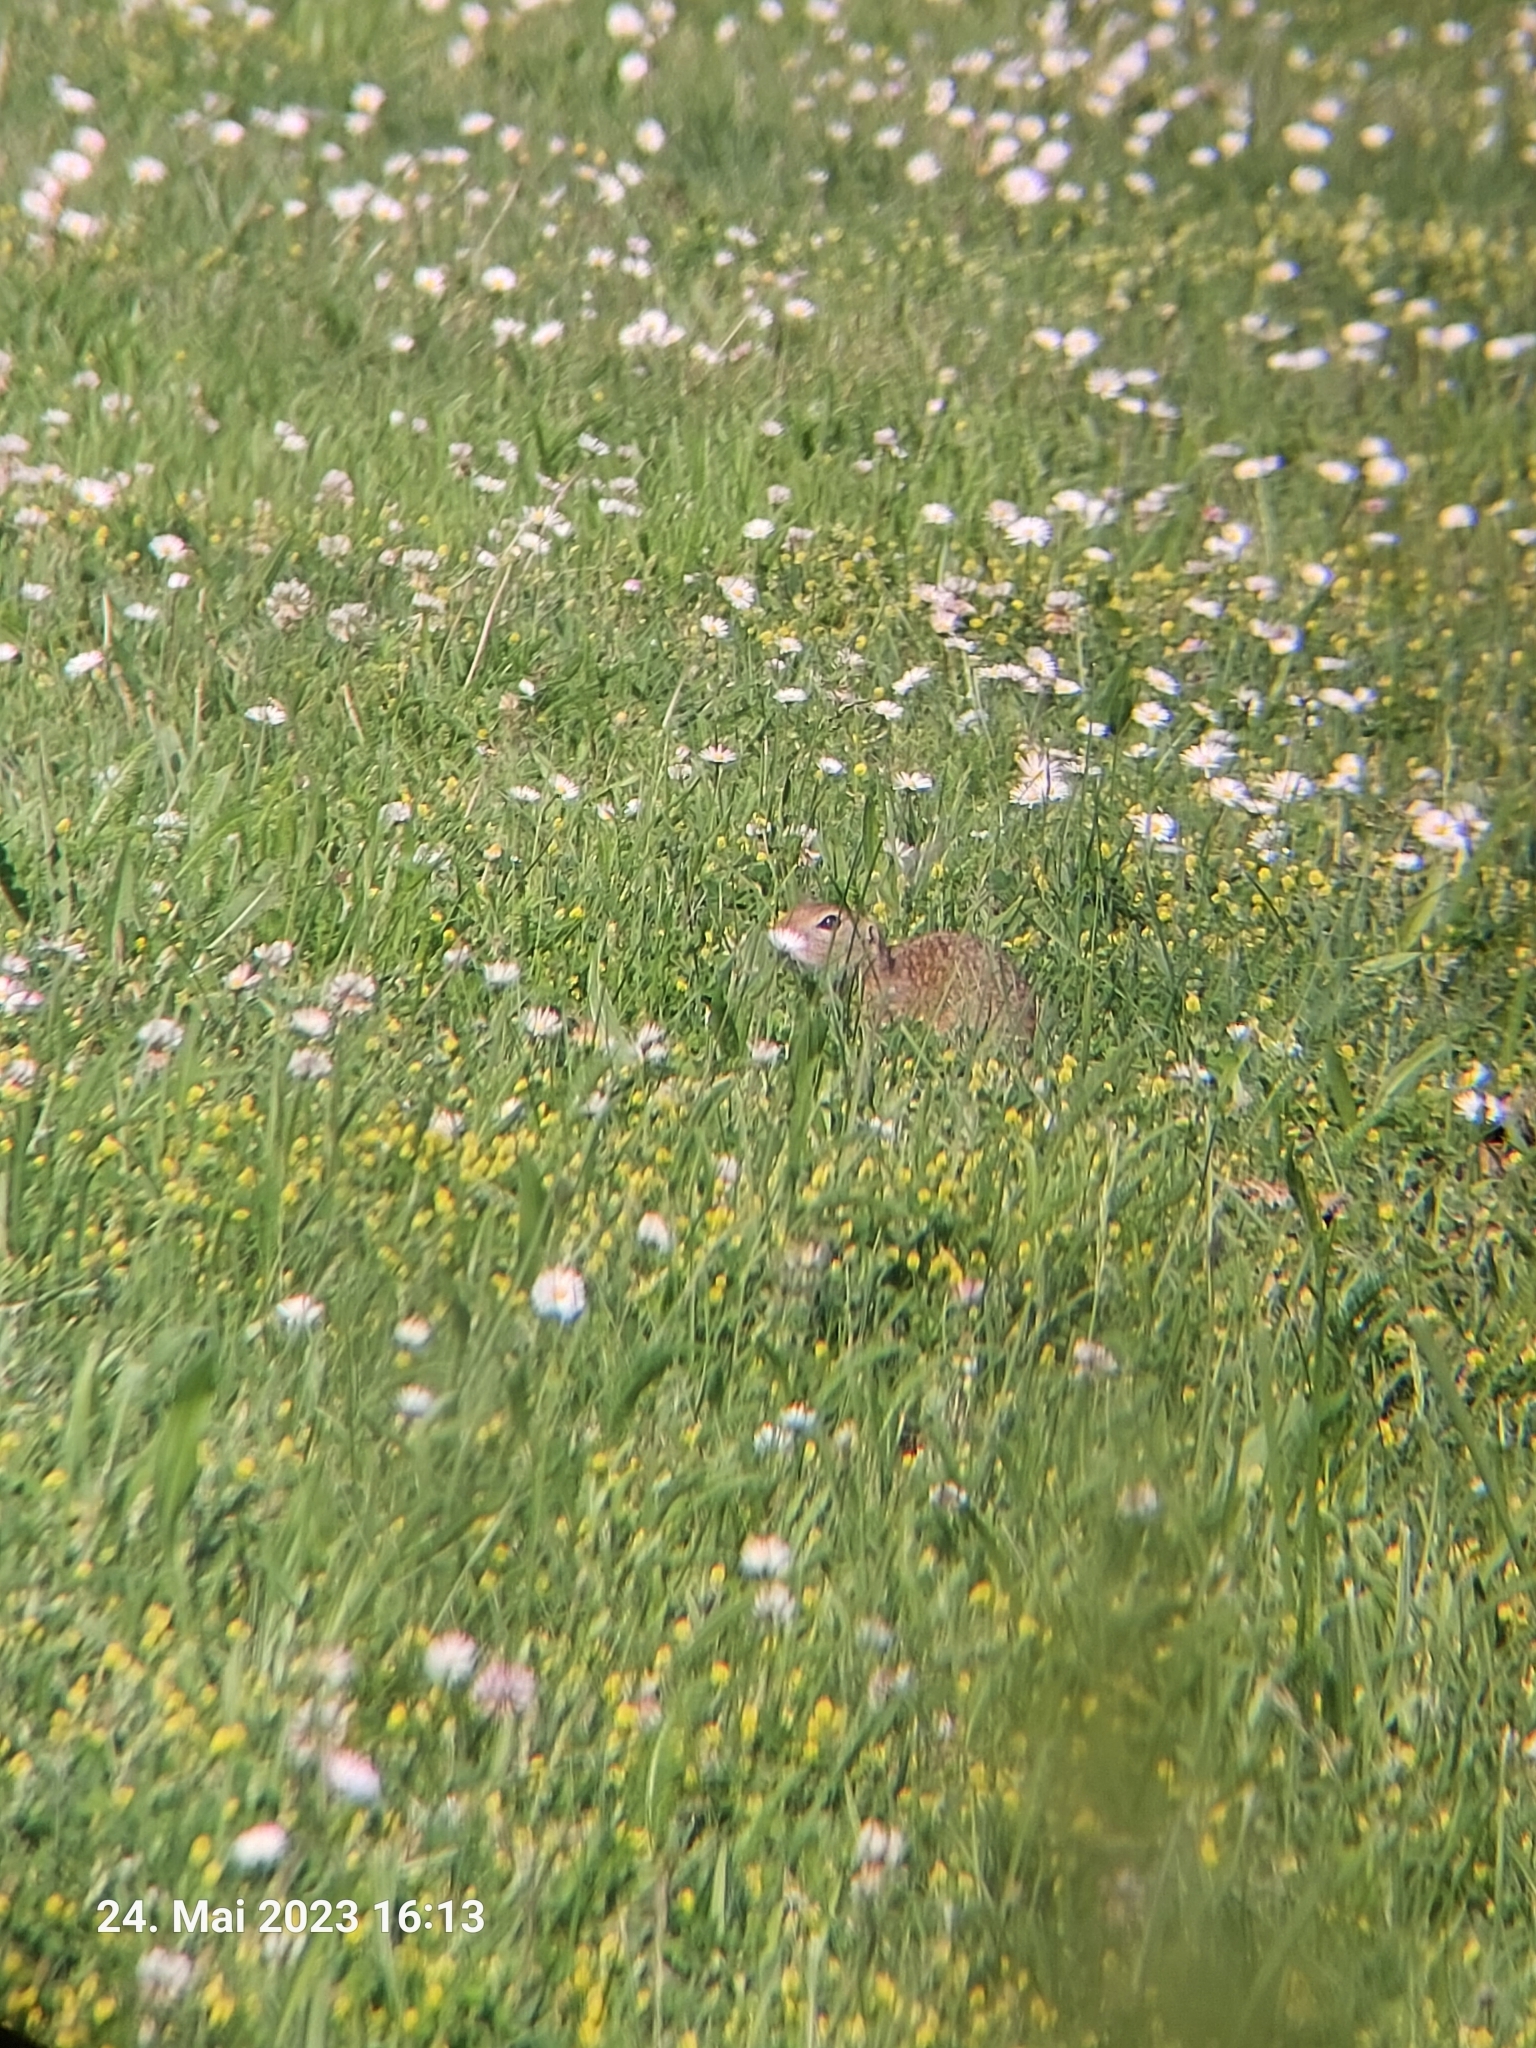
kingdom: Animalia
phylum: Chordata
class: Mammalia
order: Rodentia
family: Sciuridae
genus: Spermophilus
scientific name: Spermophilus citellus
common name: European ground squirrel
